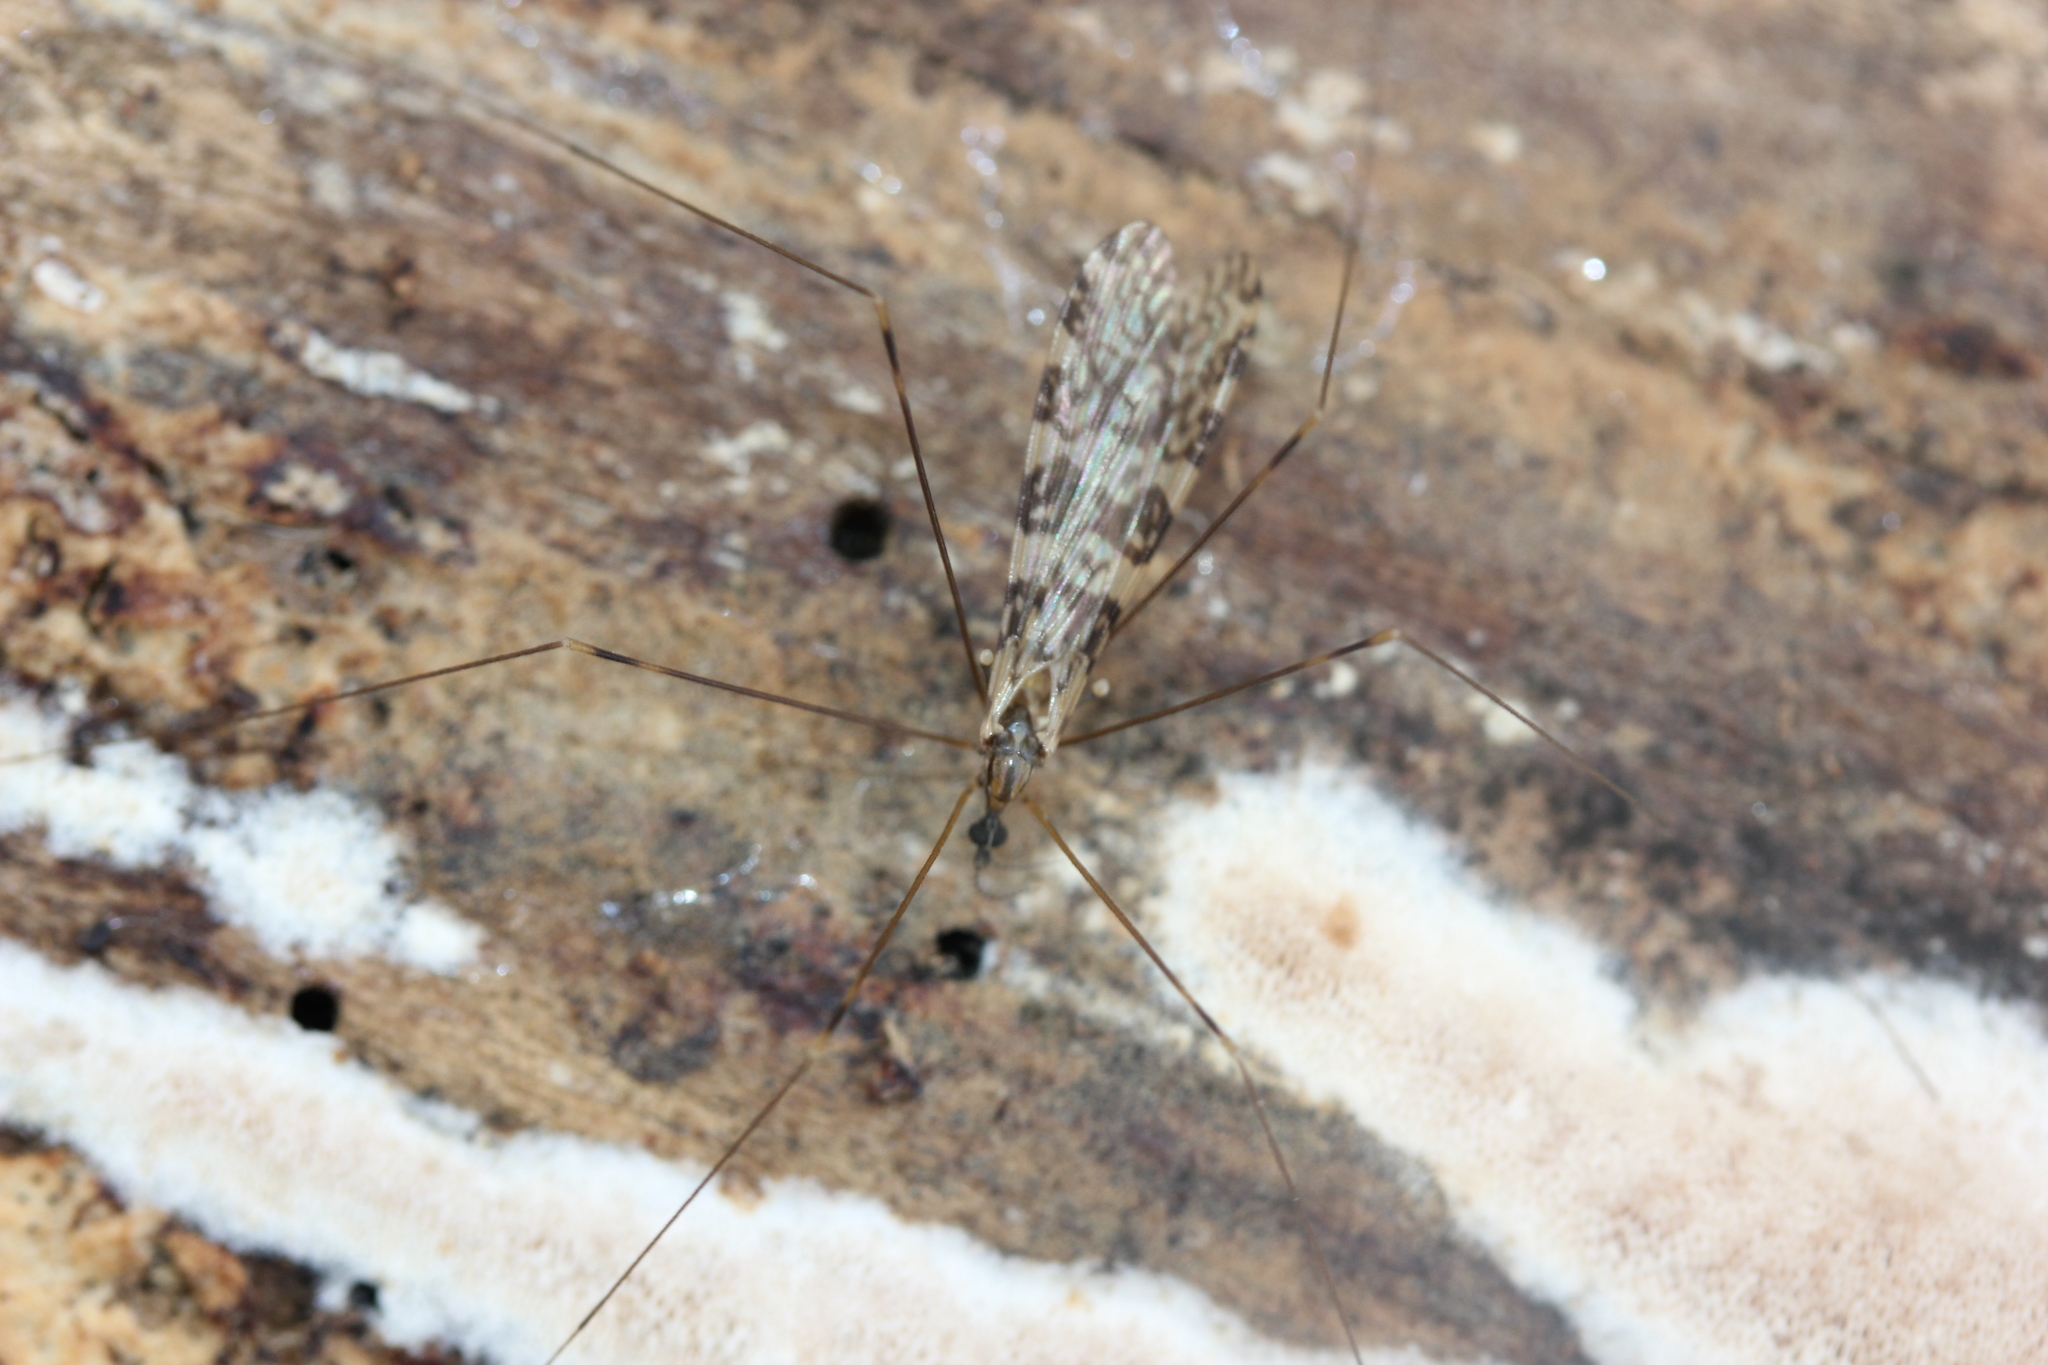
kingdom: Animalia
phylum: Arthropoda
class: Insecta
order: Diptera
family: Limoniidae
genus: Limonia
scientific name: Limonia annulata
